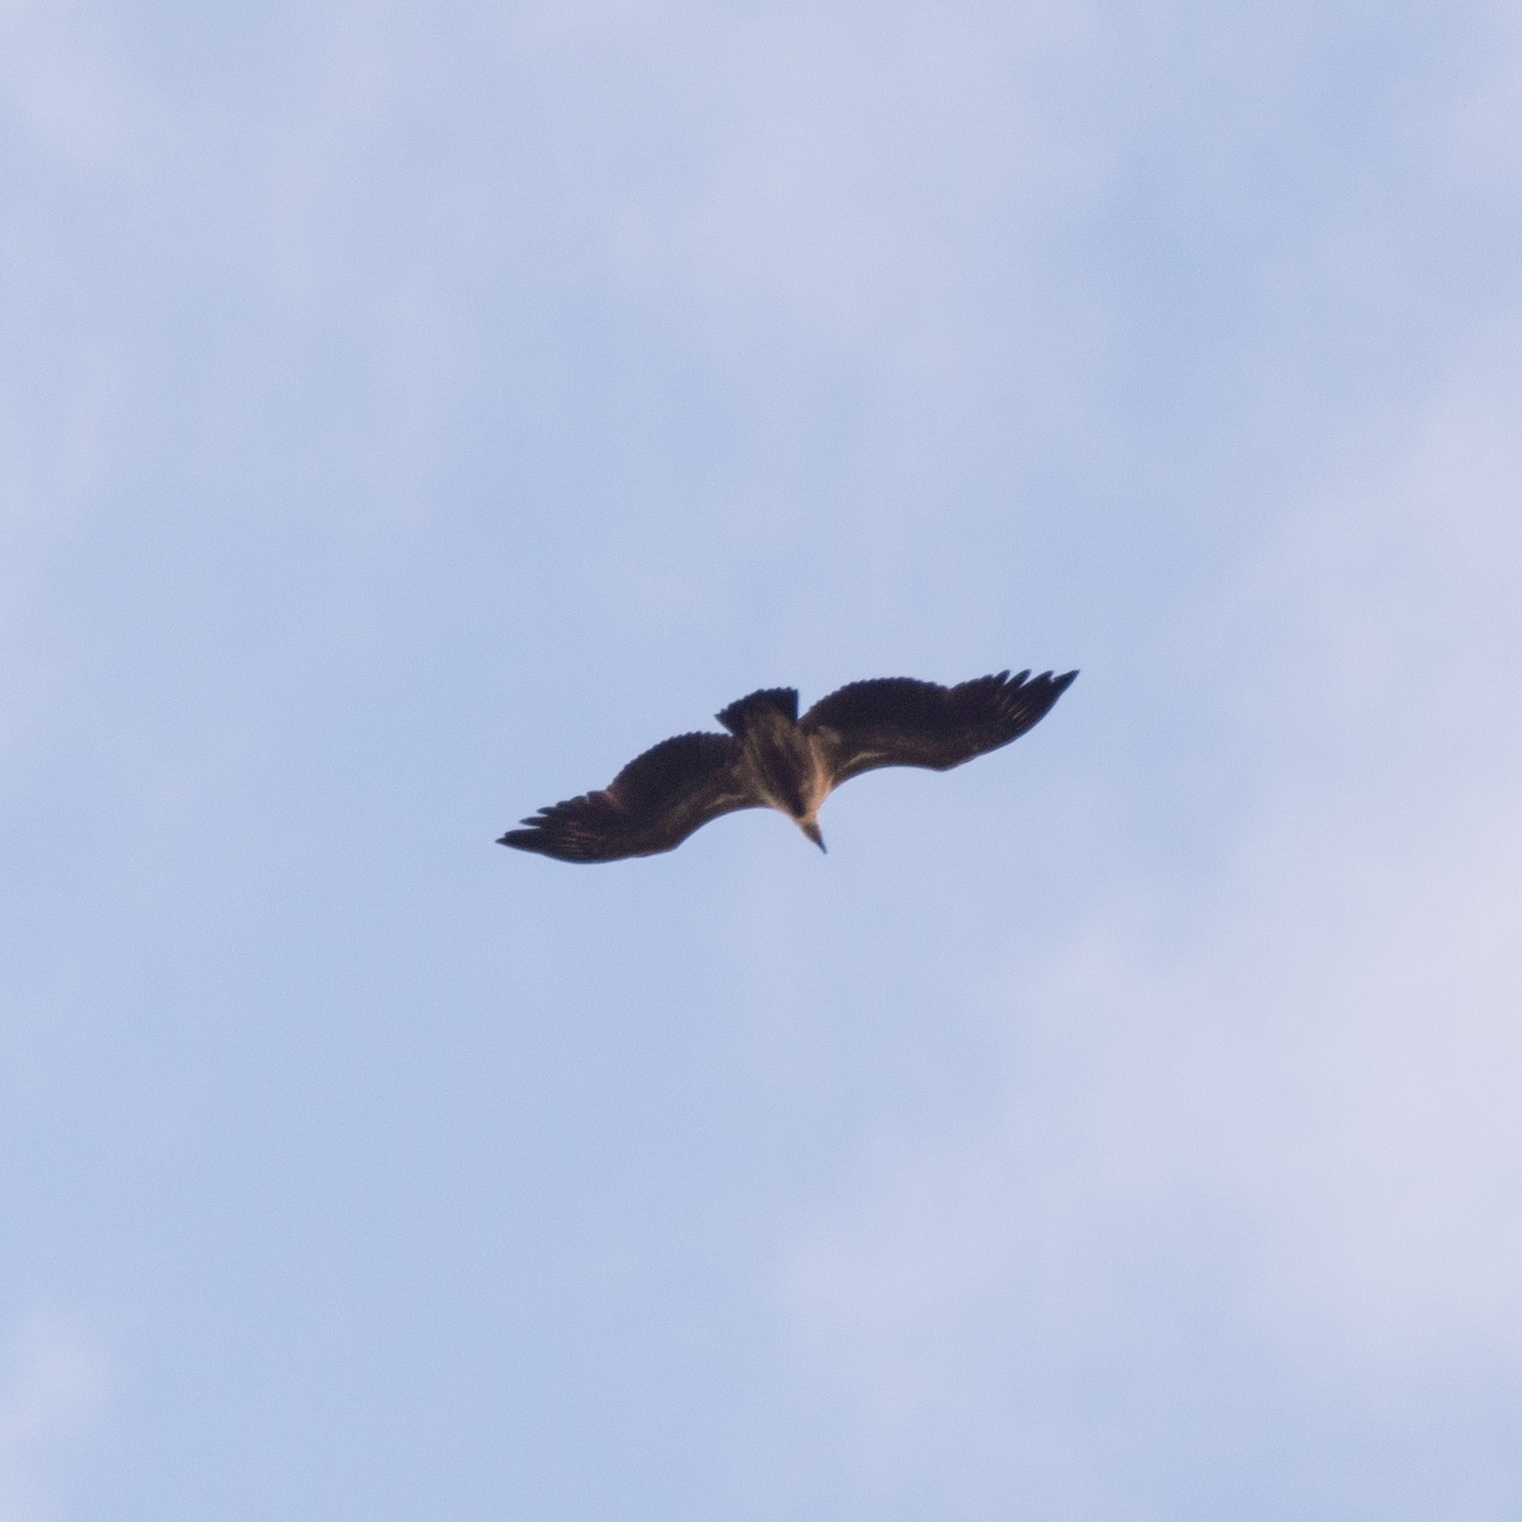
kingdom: Animalia
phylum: Chordata
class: Aves
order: Accipitriformes
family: Accipitridae
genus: Gyps
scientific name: Gyps fulvus
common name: Griffon vulture
